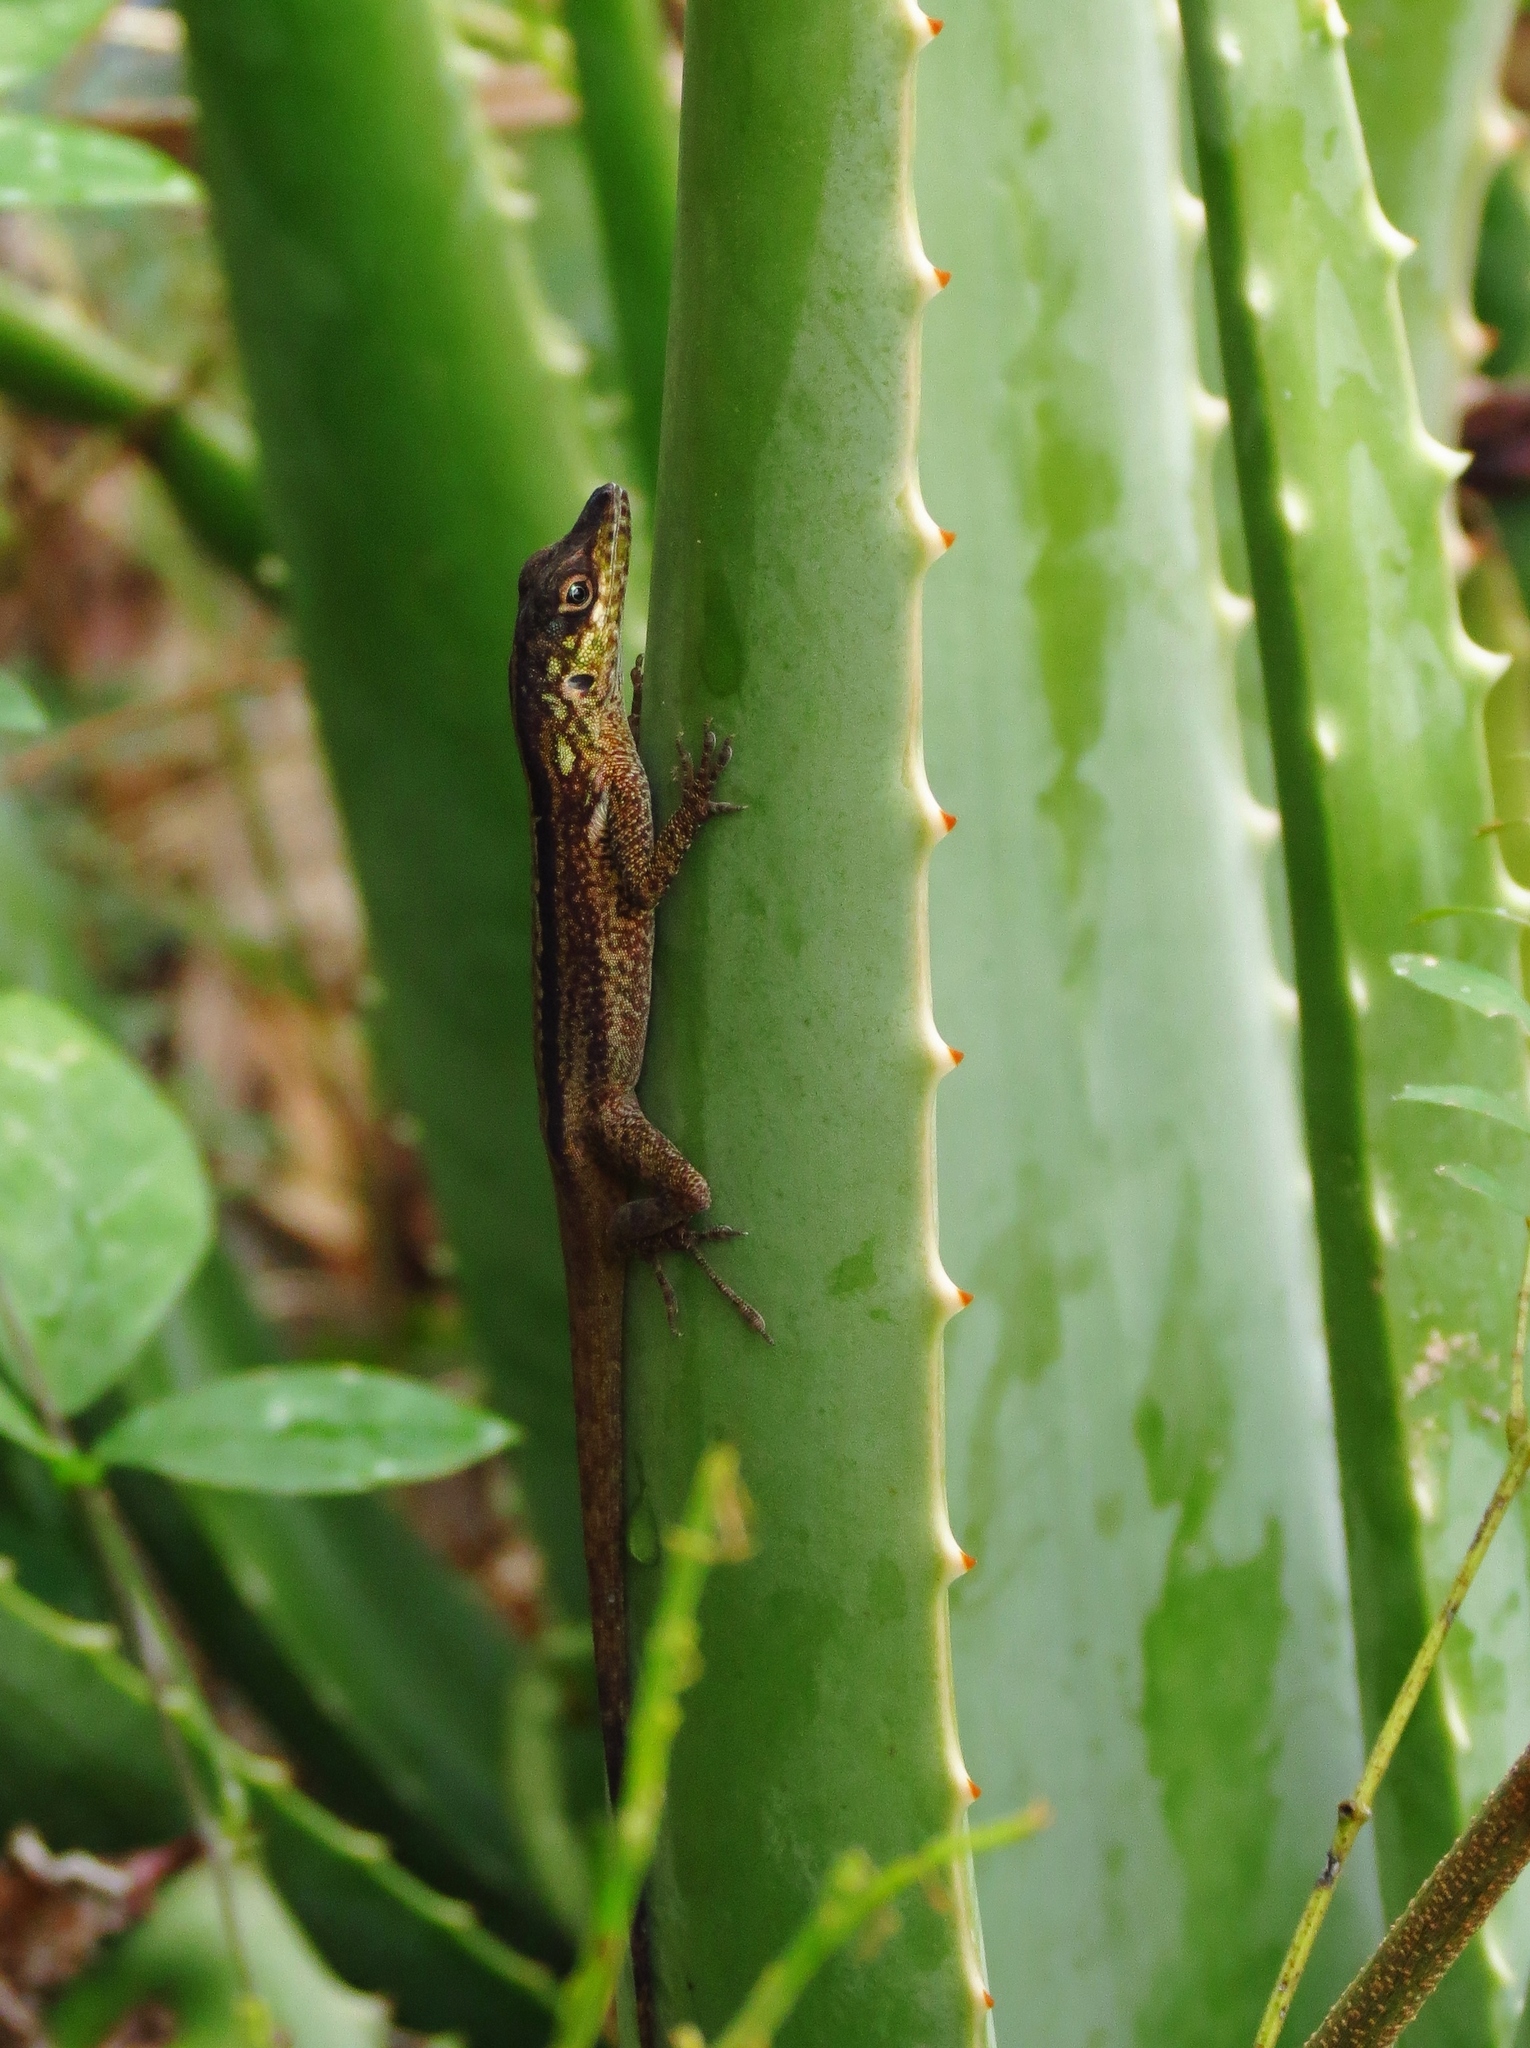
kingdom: Animalia
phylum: Chordata
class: Squamata
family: Dactyloidae
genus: Anolis
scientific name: Anolis roquet
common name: Martinique anole
